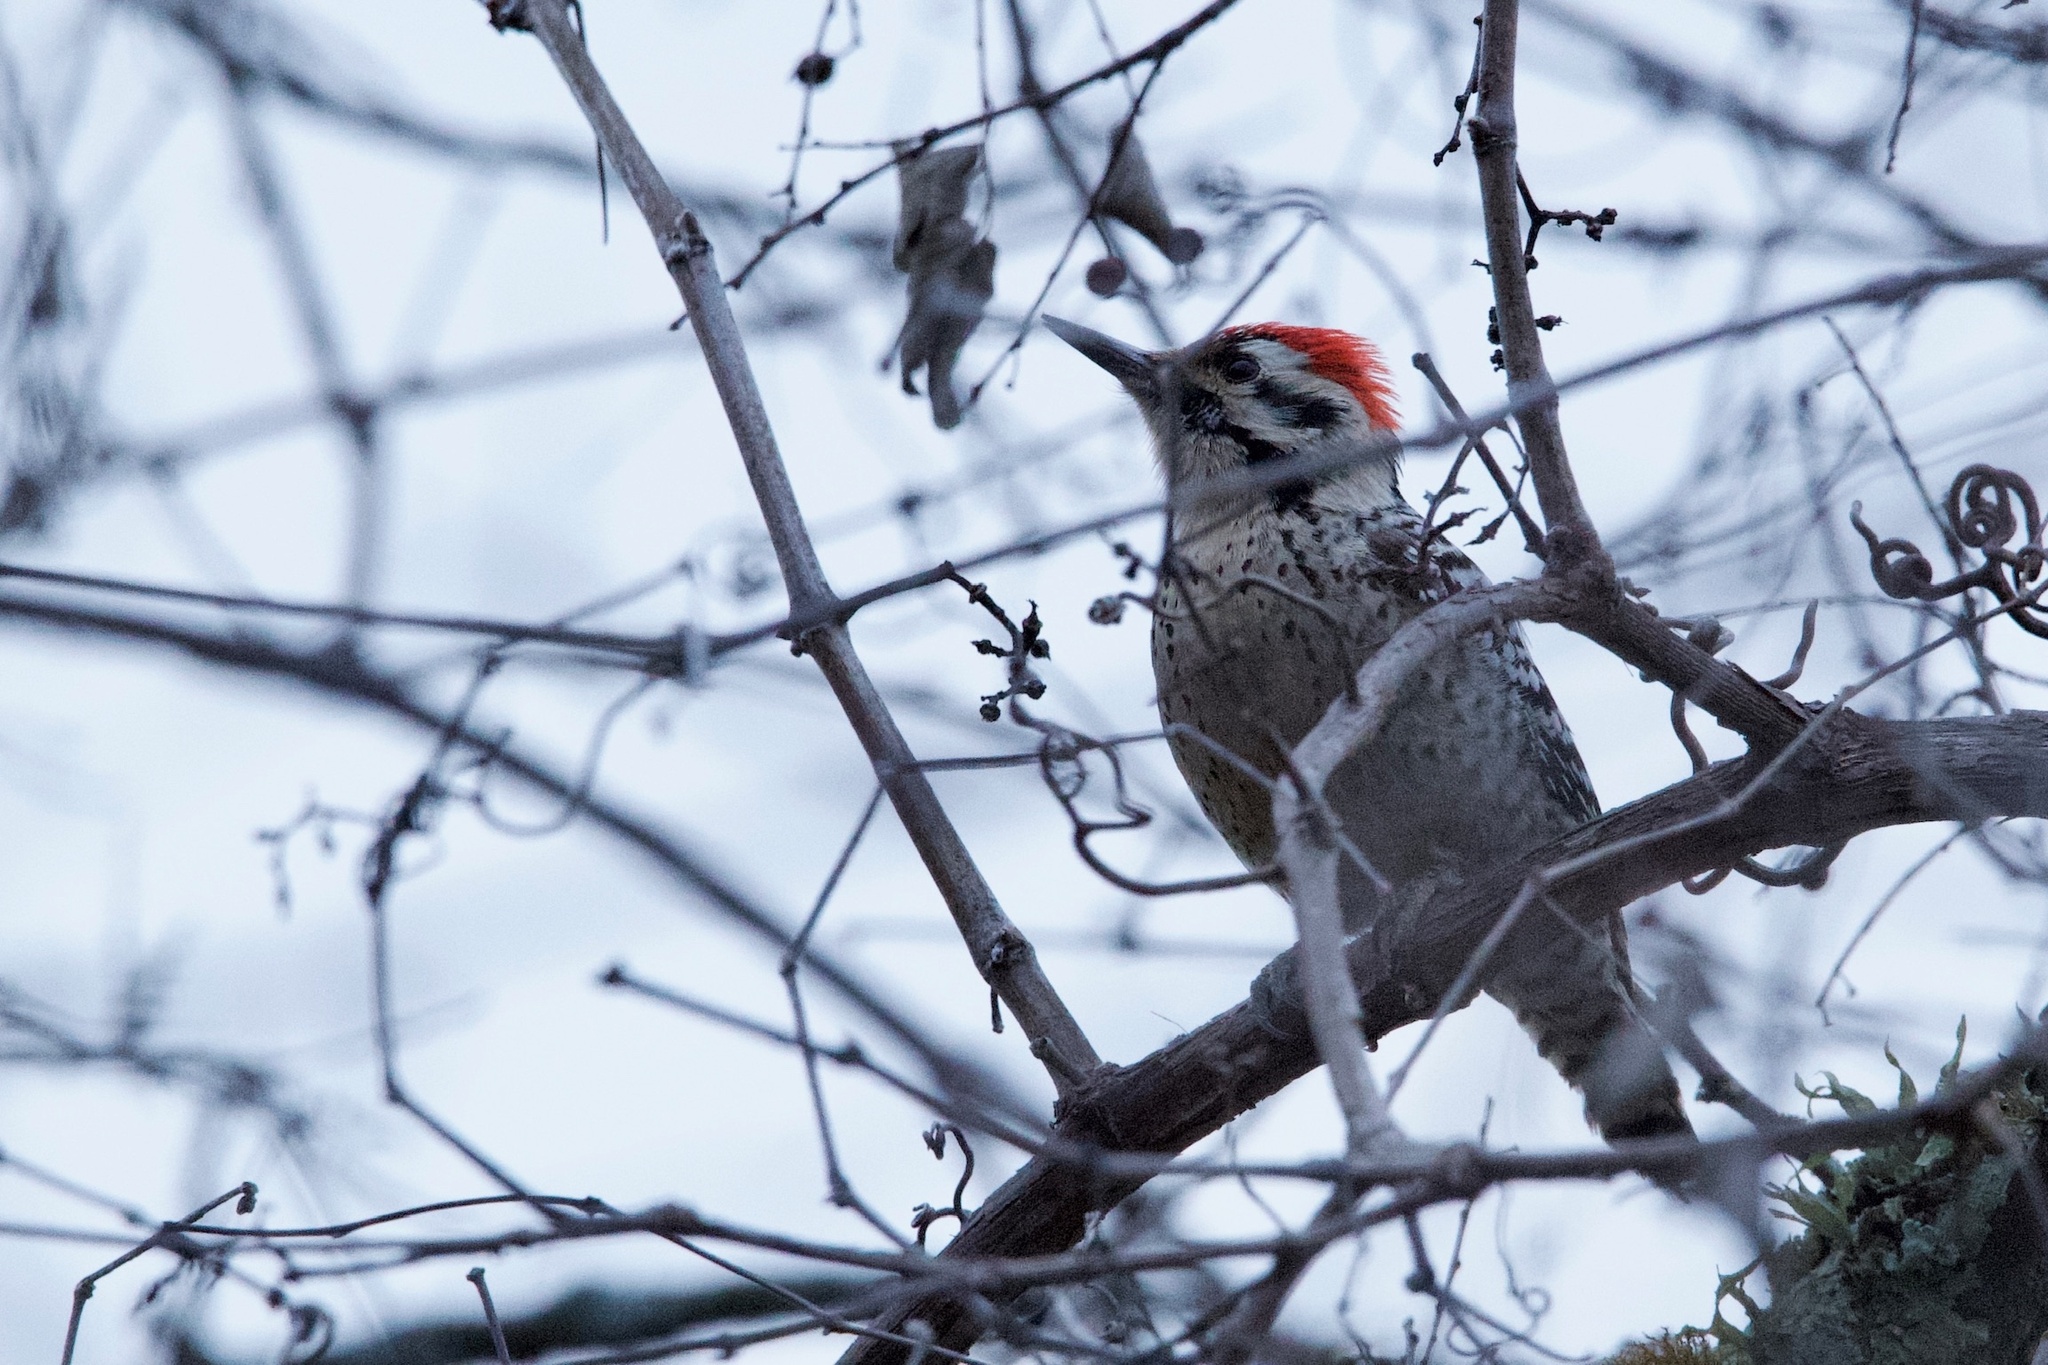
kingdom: Animalia
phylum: Chordata
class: Aves
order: Piciformes
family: Picidae
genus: Dryobates
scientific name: Dryobates scalaris
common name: Ladder-backed woodpecker
